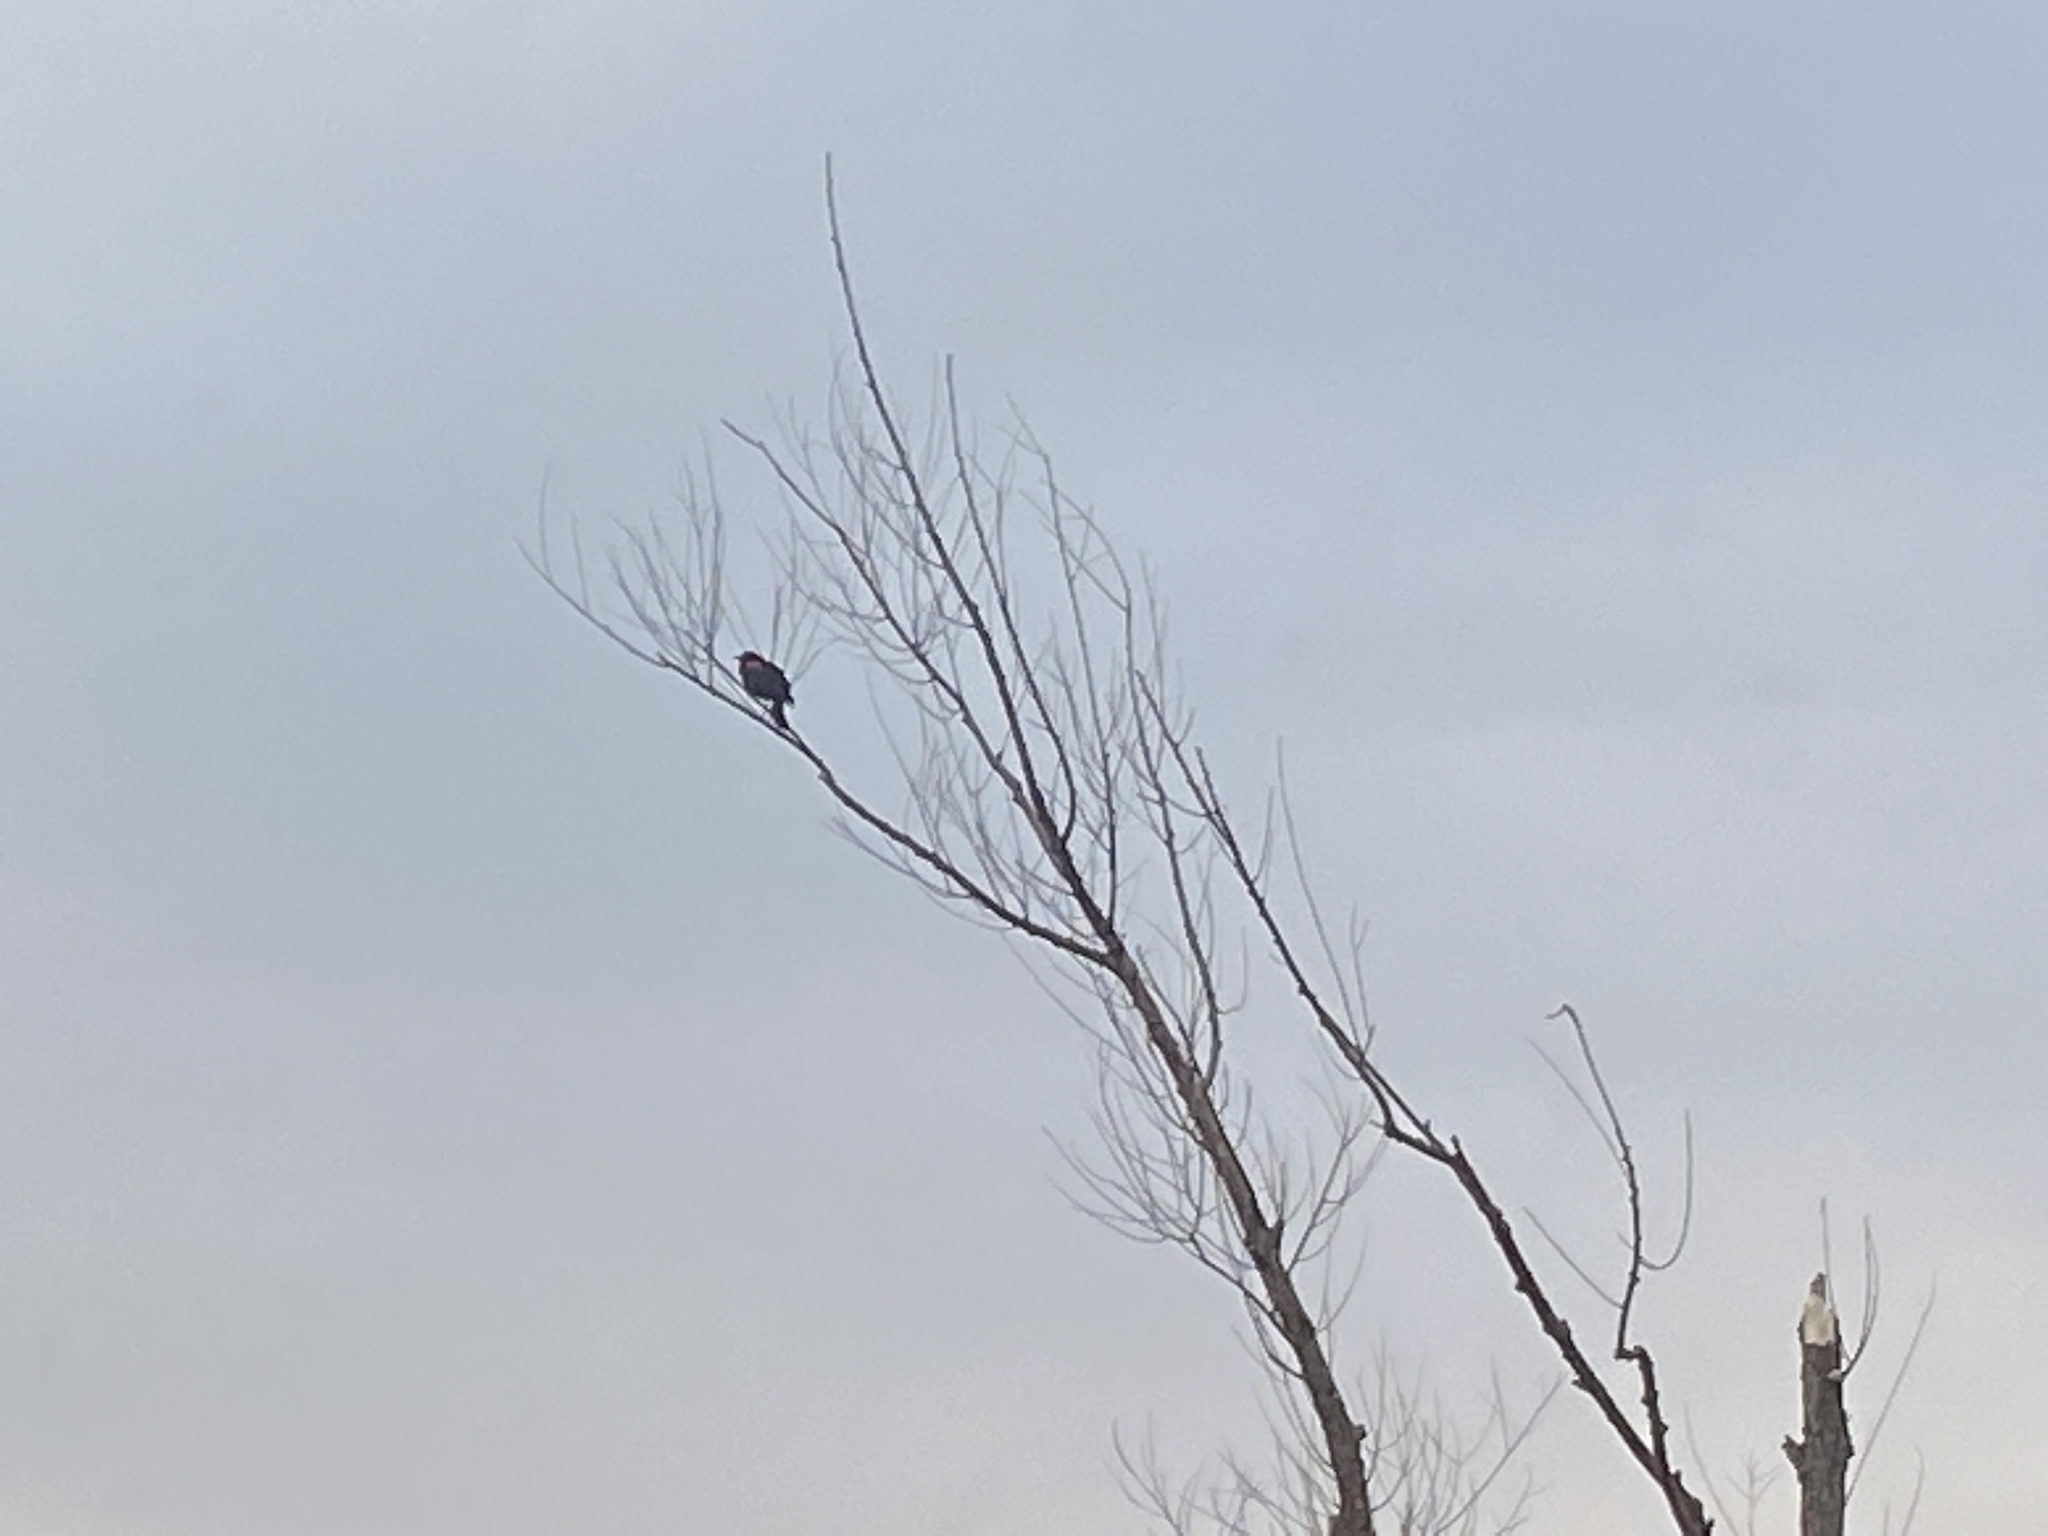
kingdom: Animalia
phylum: Chordata
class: Aves
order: Passeriformes
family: Icteridae
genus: Agelaius
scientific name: Agelaius phoeniceus
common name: Red-winged blackbird
